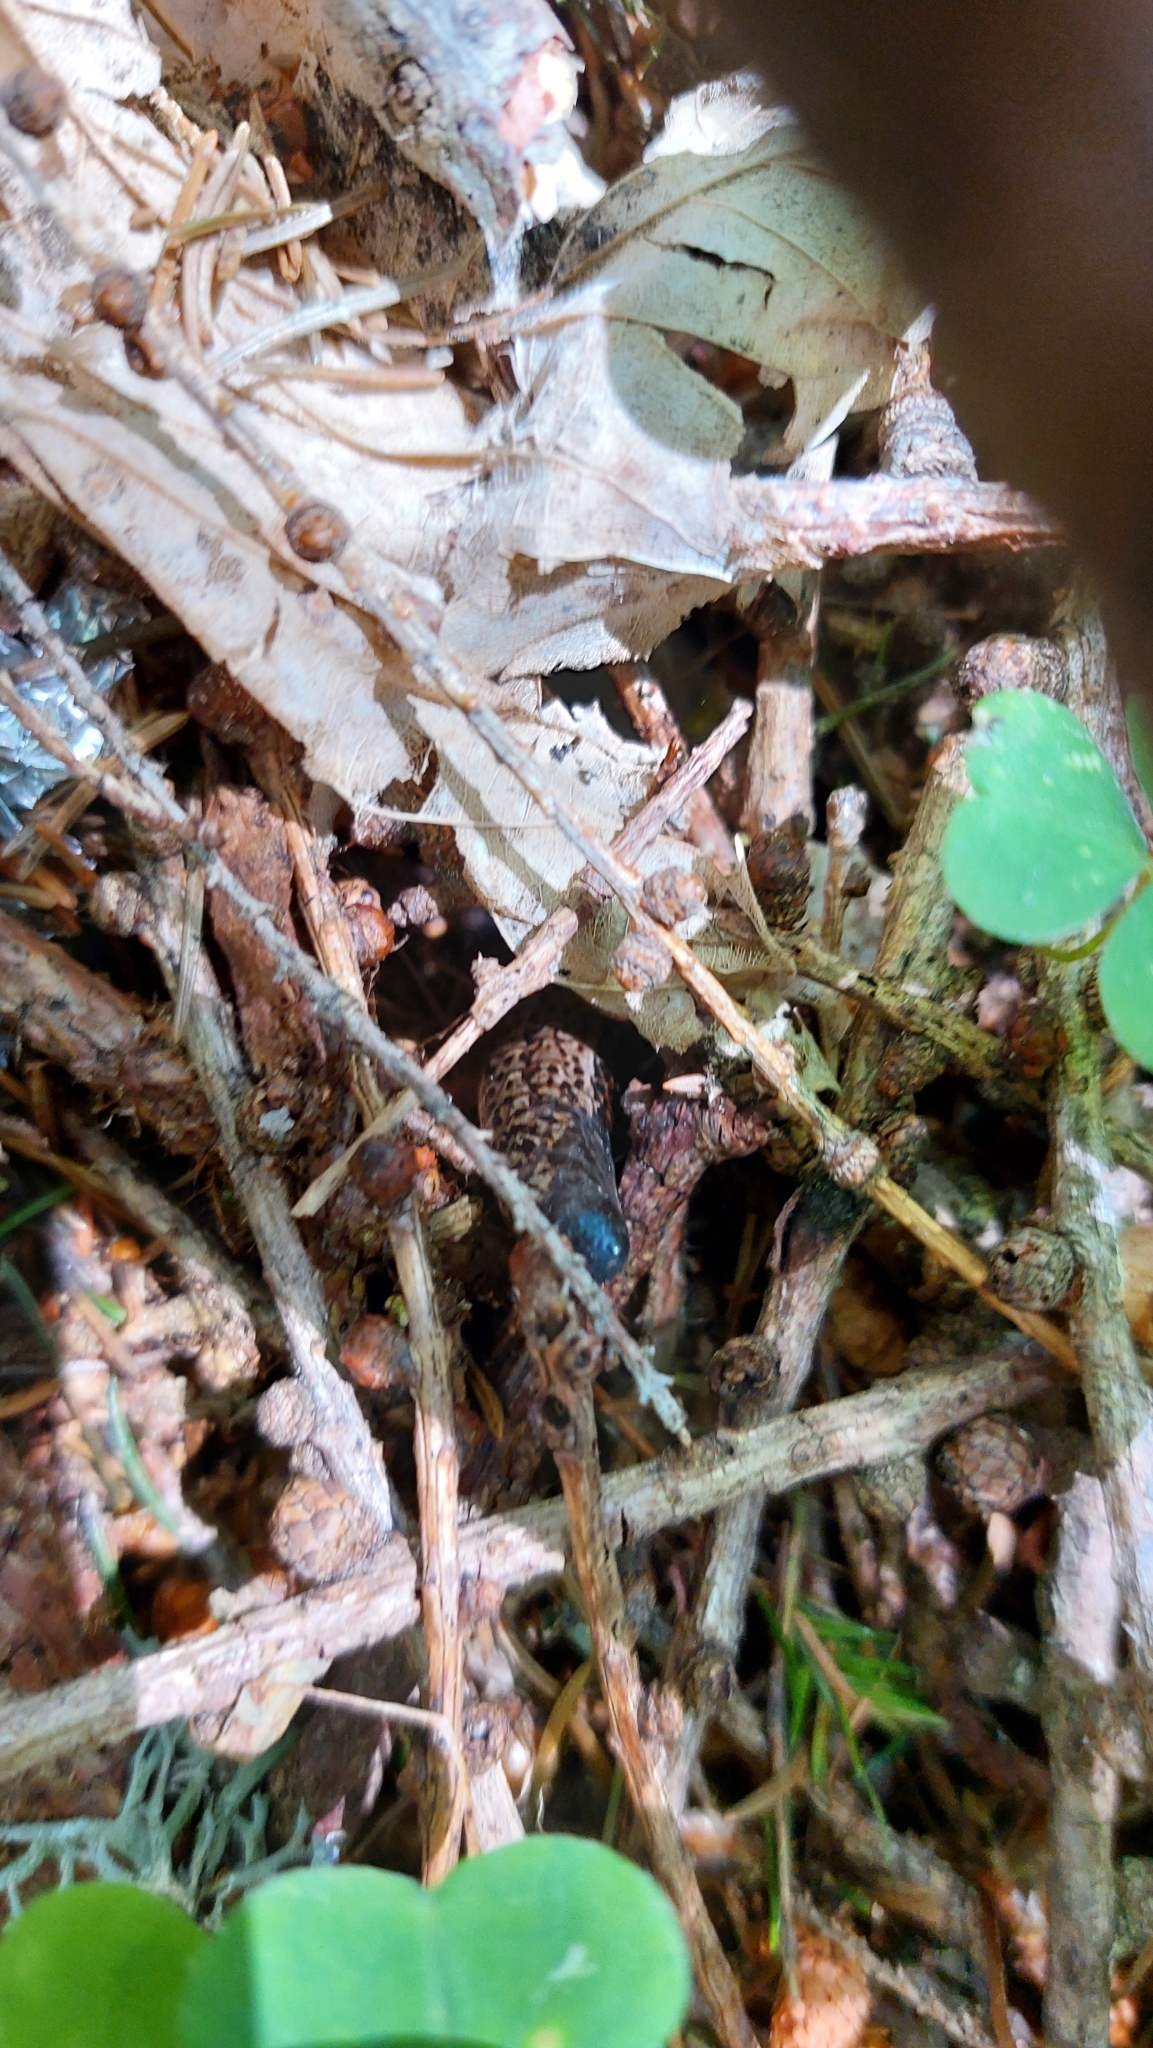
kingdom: Animalia
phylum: Chordata
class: Squamata
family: Anguidae
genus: Anguis
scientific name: Anguis fragilis
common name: Slow worm
